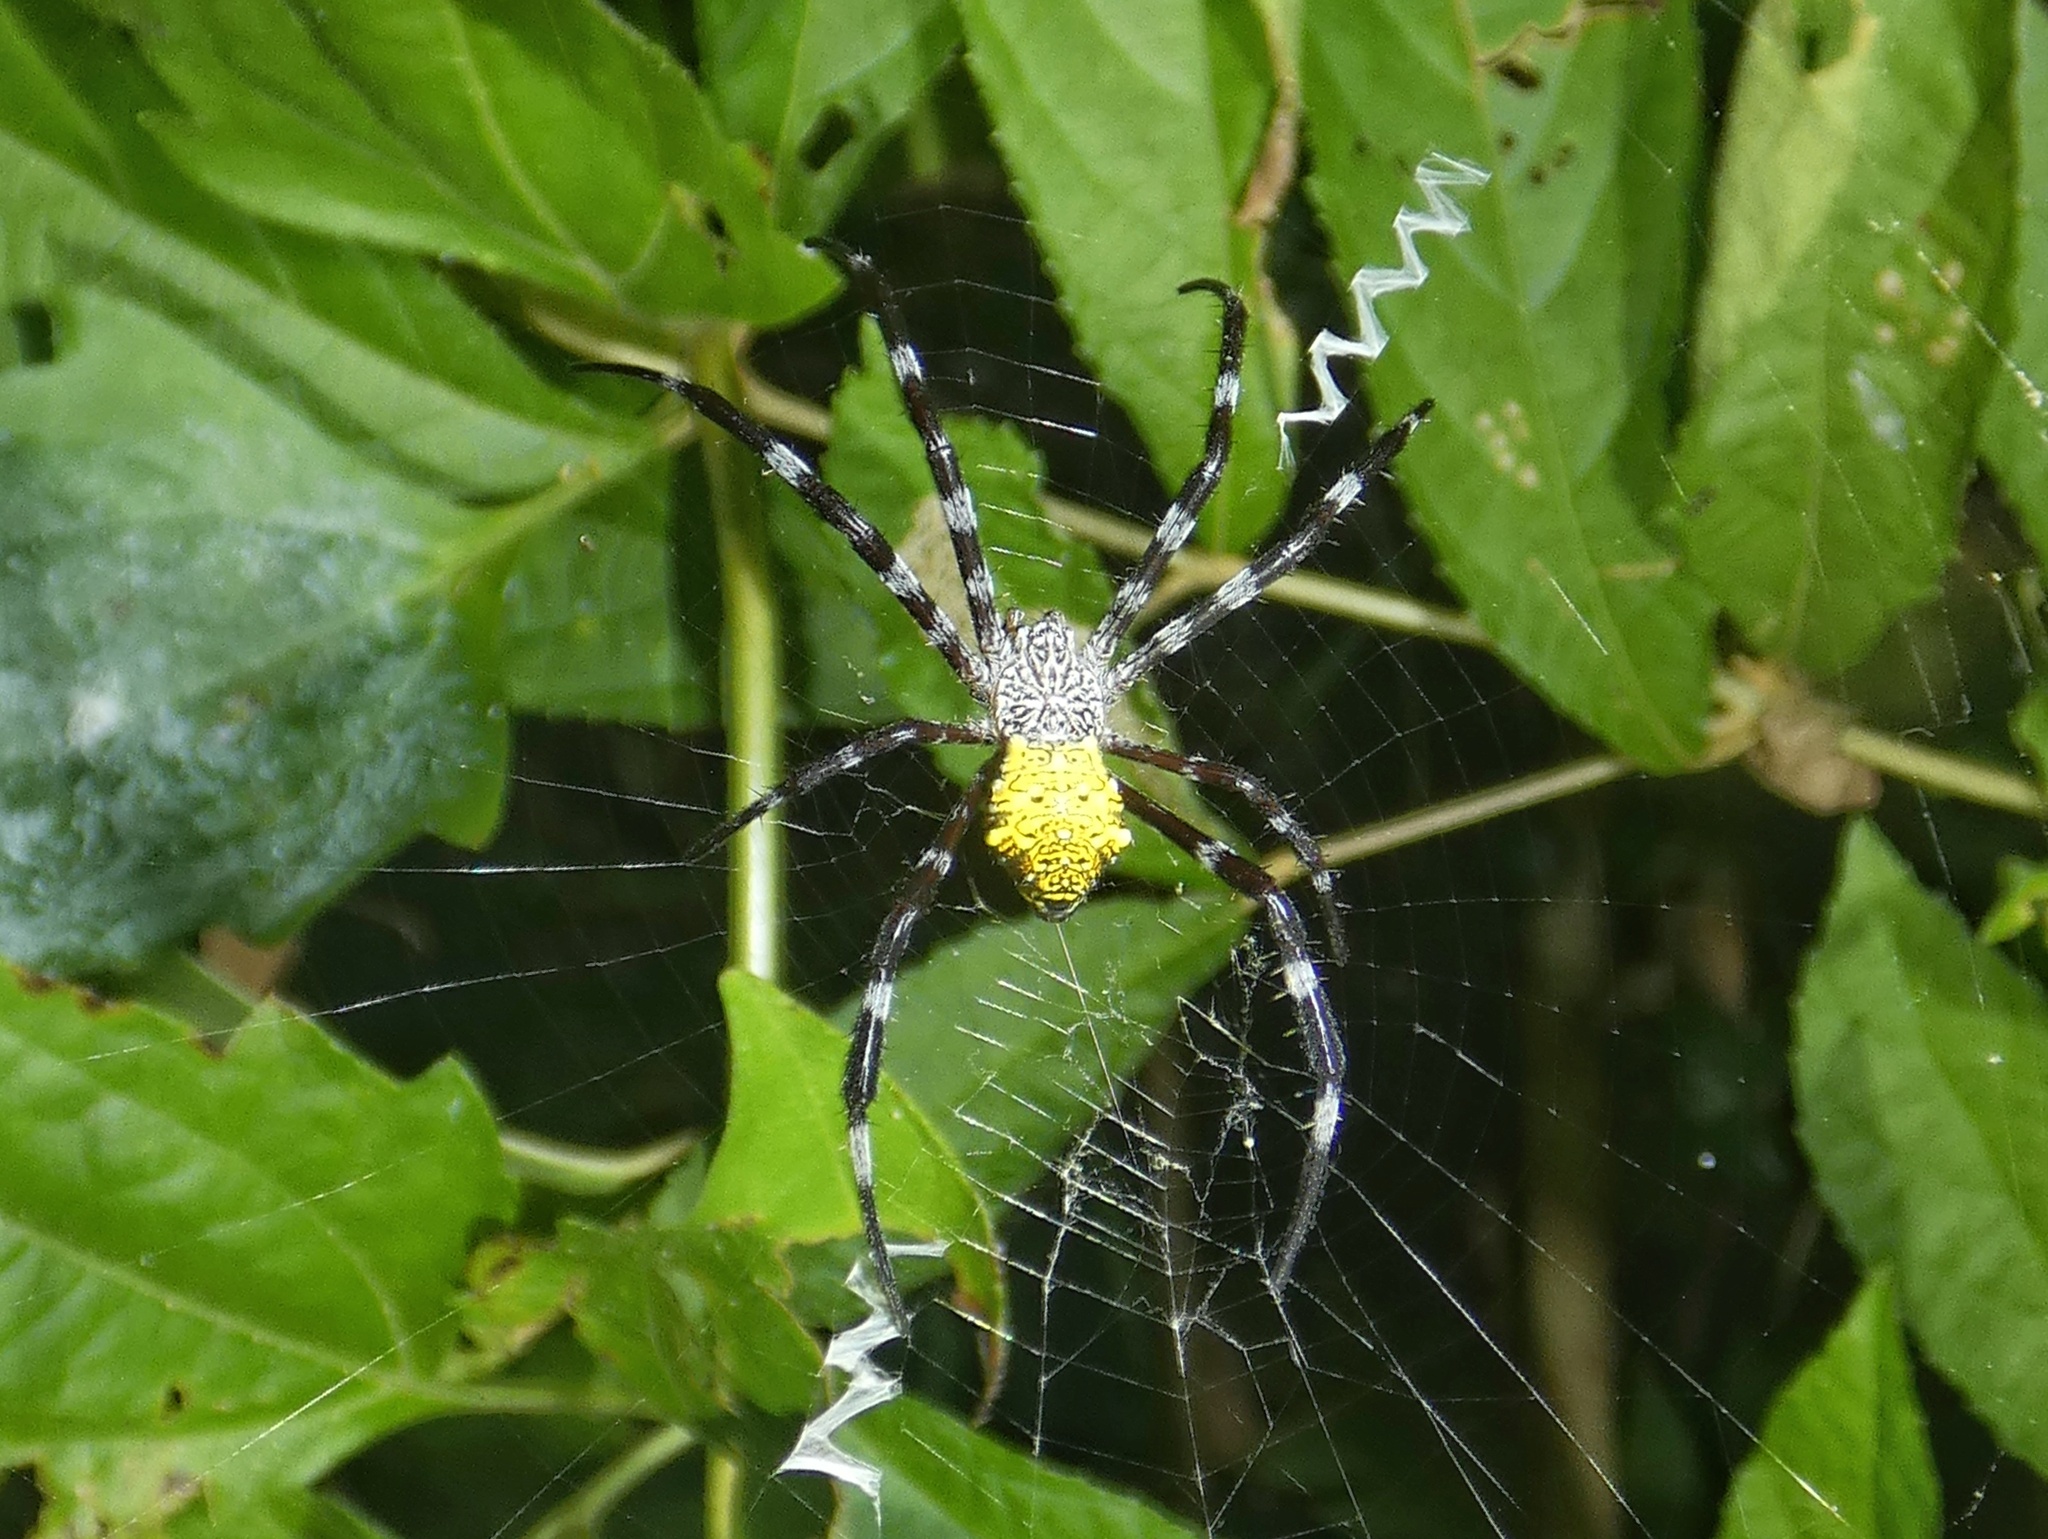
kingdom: Animalia
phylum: Arthropoda
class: Arachnida
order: Araneae
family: Araneidae
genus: Argiope
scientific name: Argiope appensa
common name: Garden spider
